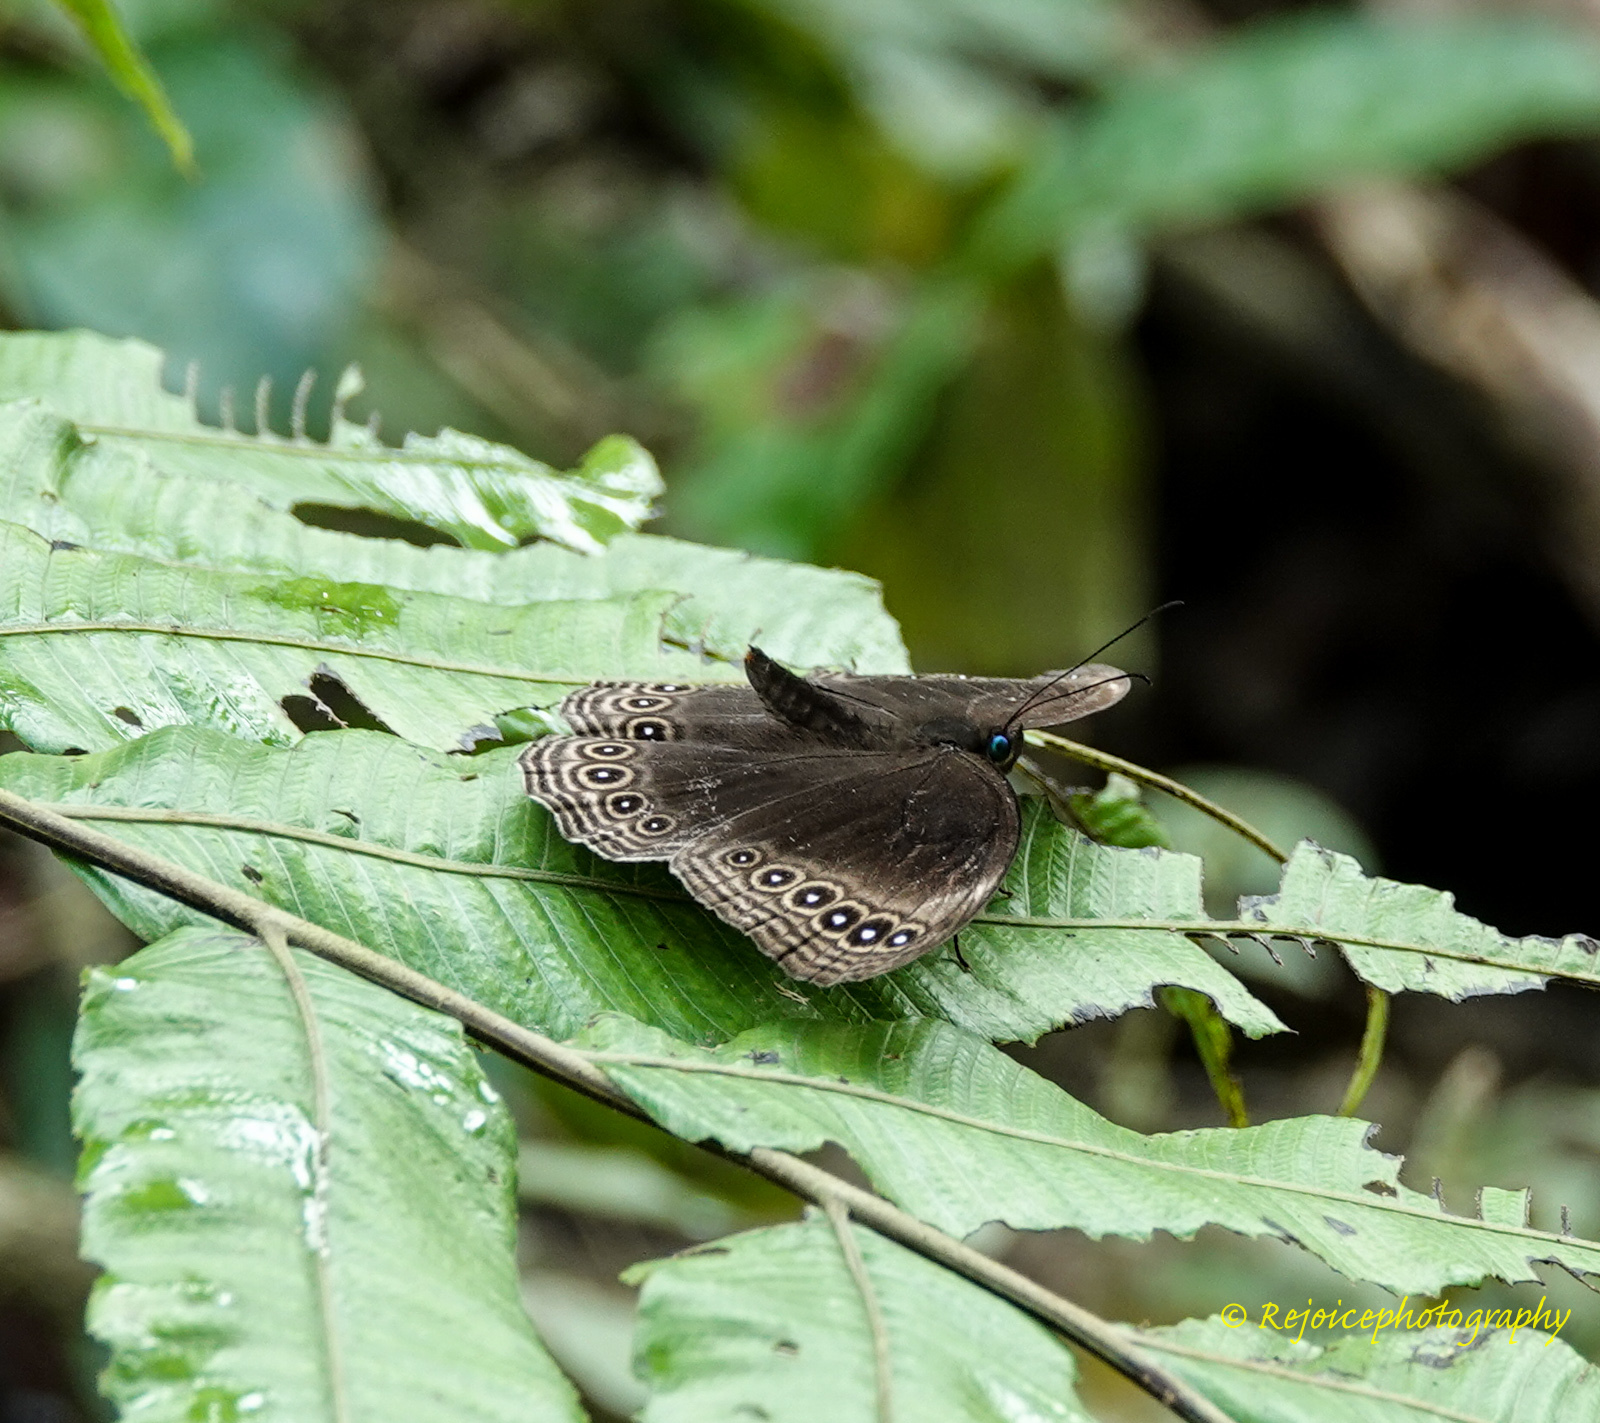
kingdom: Animalia
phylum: Arthropoda
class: Insecta
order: Lepidoptera
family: Nymphalidae
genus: Ethope
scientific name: Ethope himachala
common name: Dusky diadem
